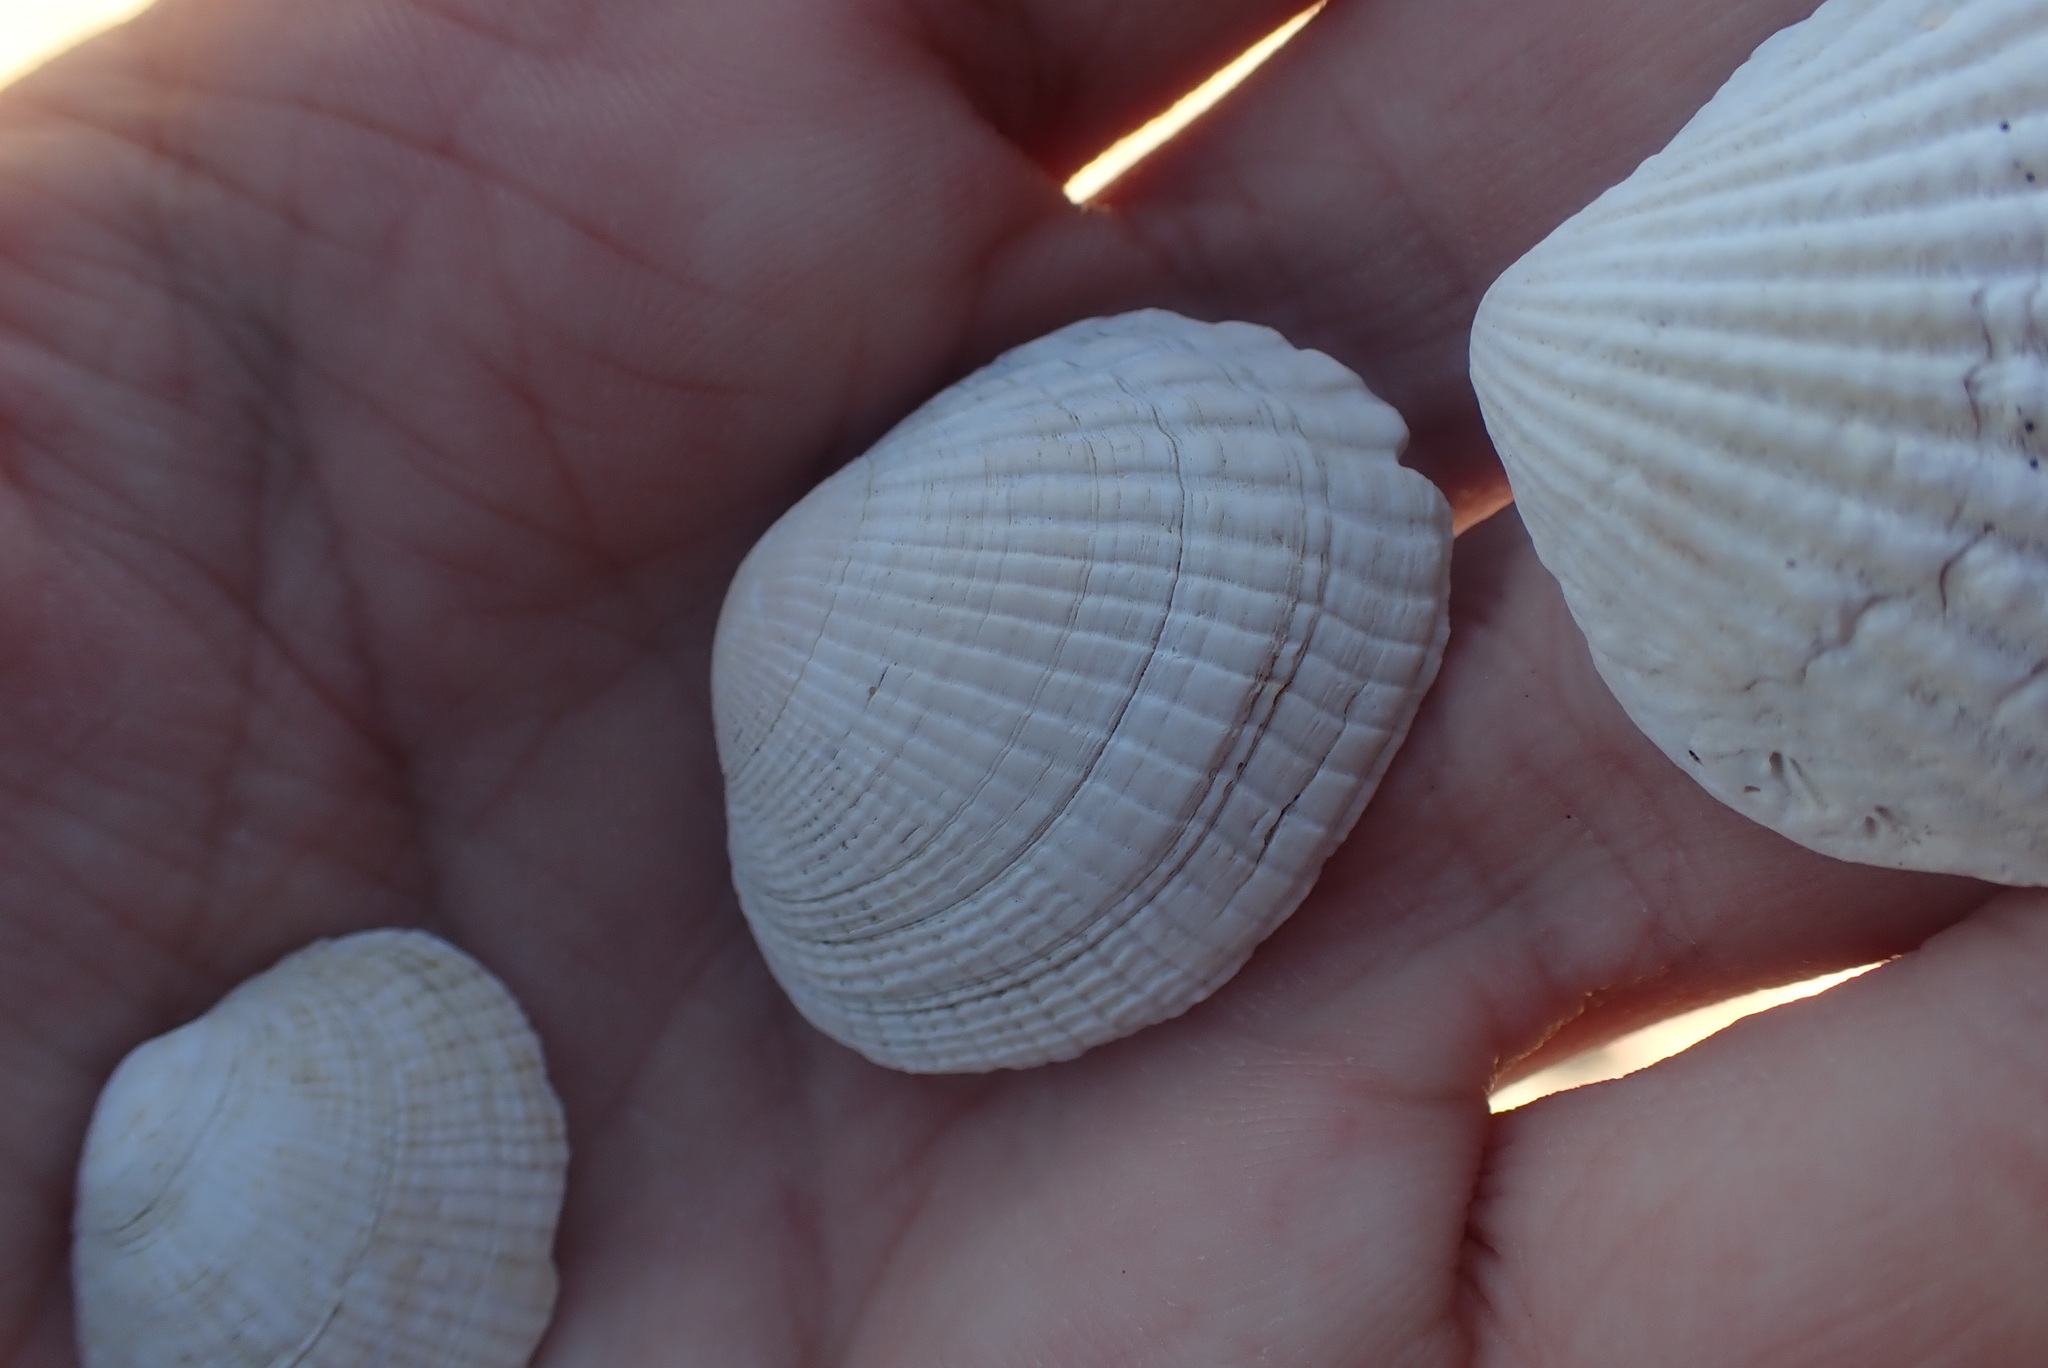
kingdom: Animalia
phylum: Mollusca
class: Bivalvia
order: Venerida
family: Veneridae
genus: Leukoma
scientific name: Leukoma crassicosta
